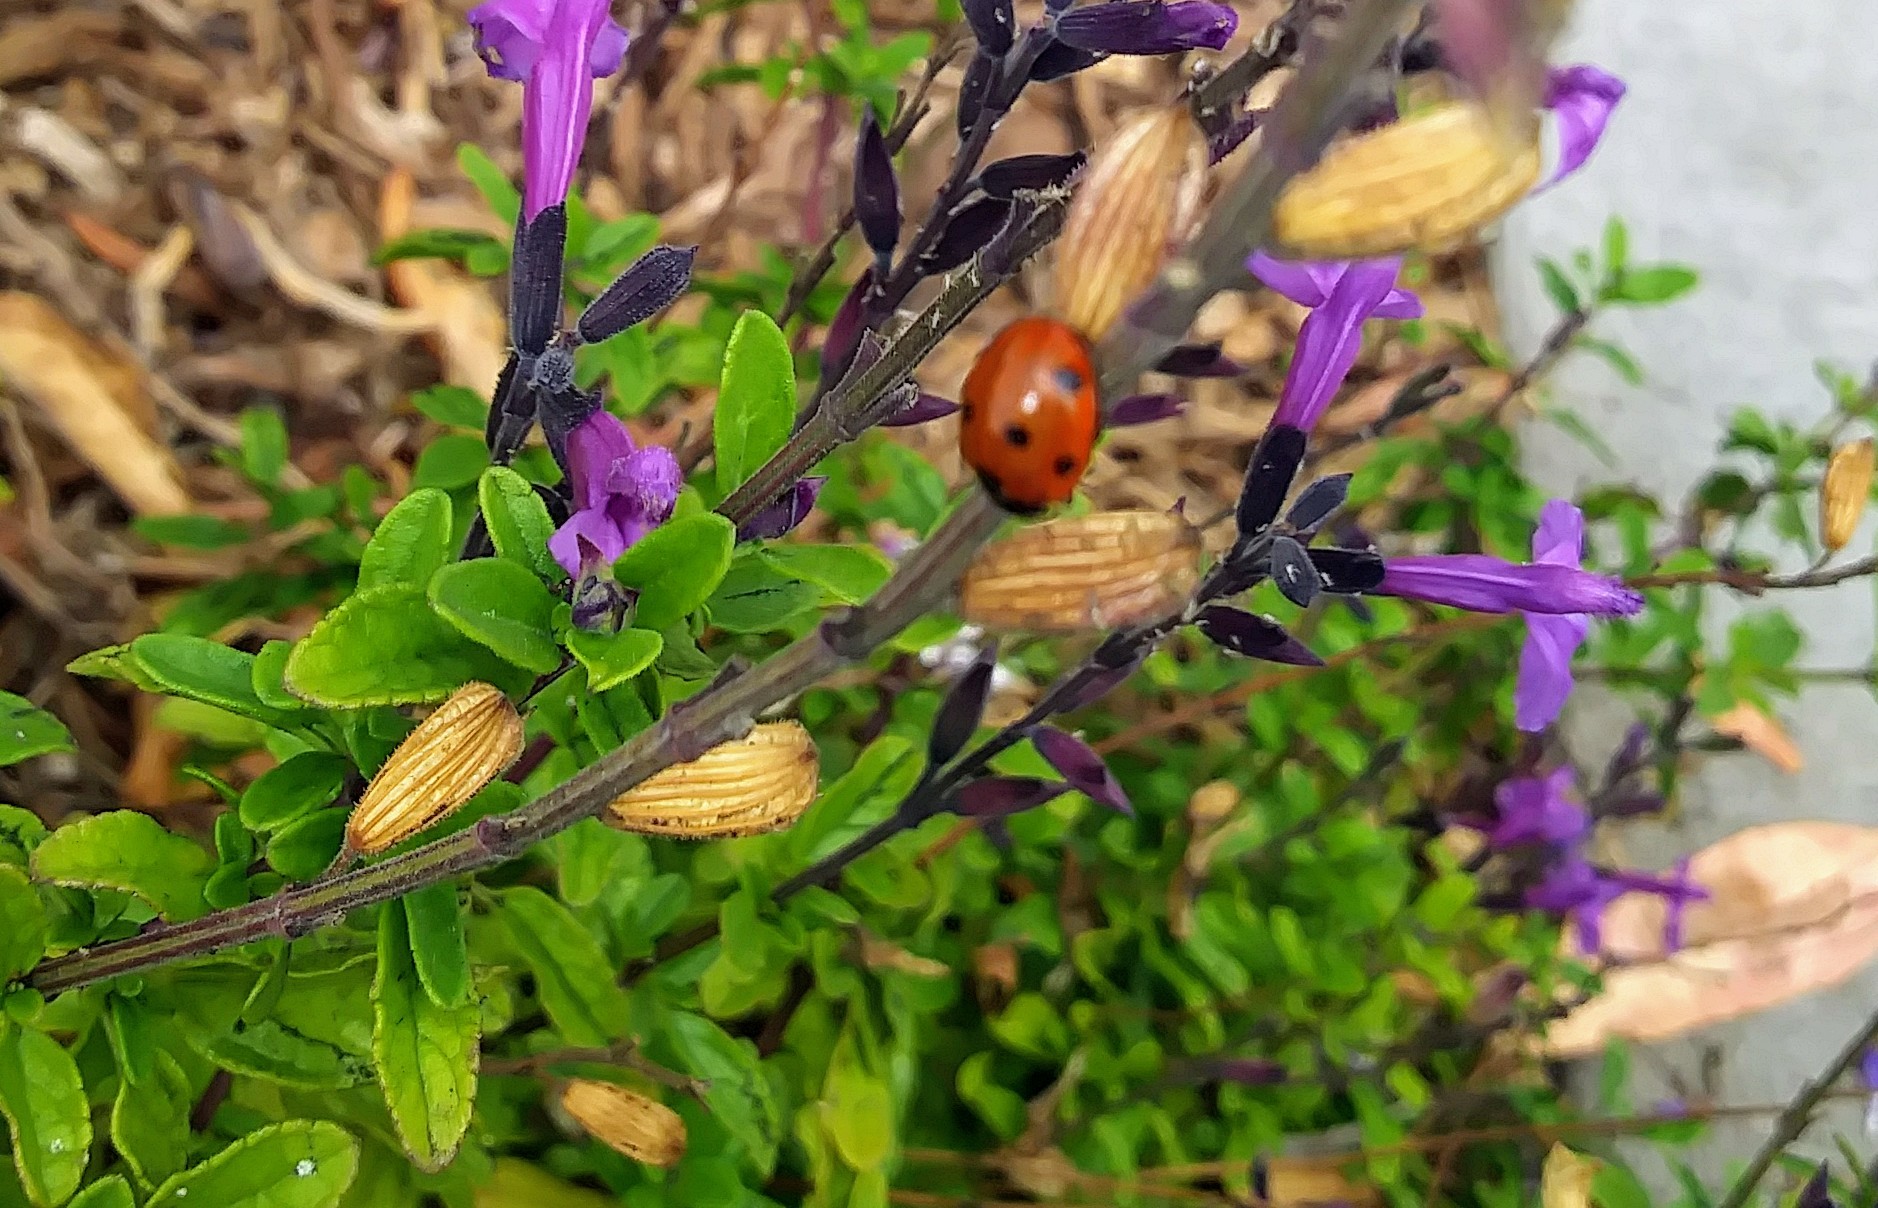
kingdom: Animalia
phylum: Arthropoda
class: Insecta
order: Coleoptera
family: Coccinellidae
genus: Coccinella
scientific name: Coccinella septempunctata
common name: Sevenspotted lady beetle
